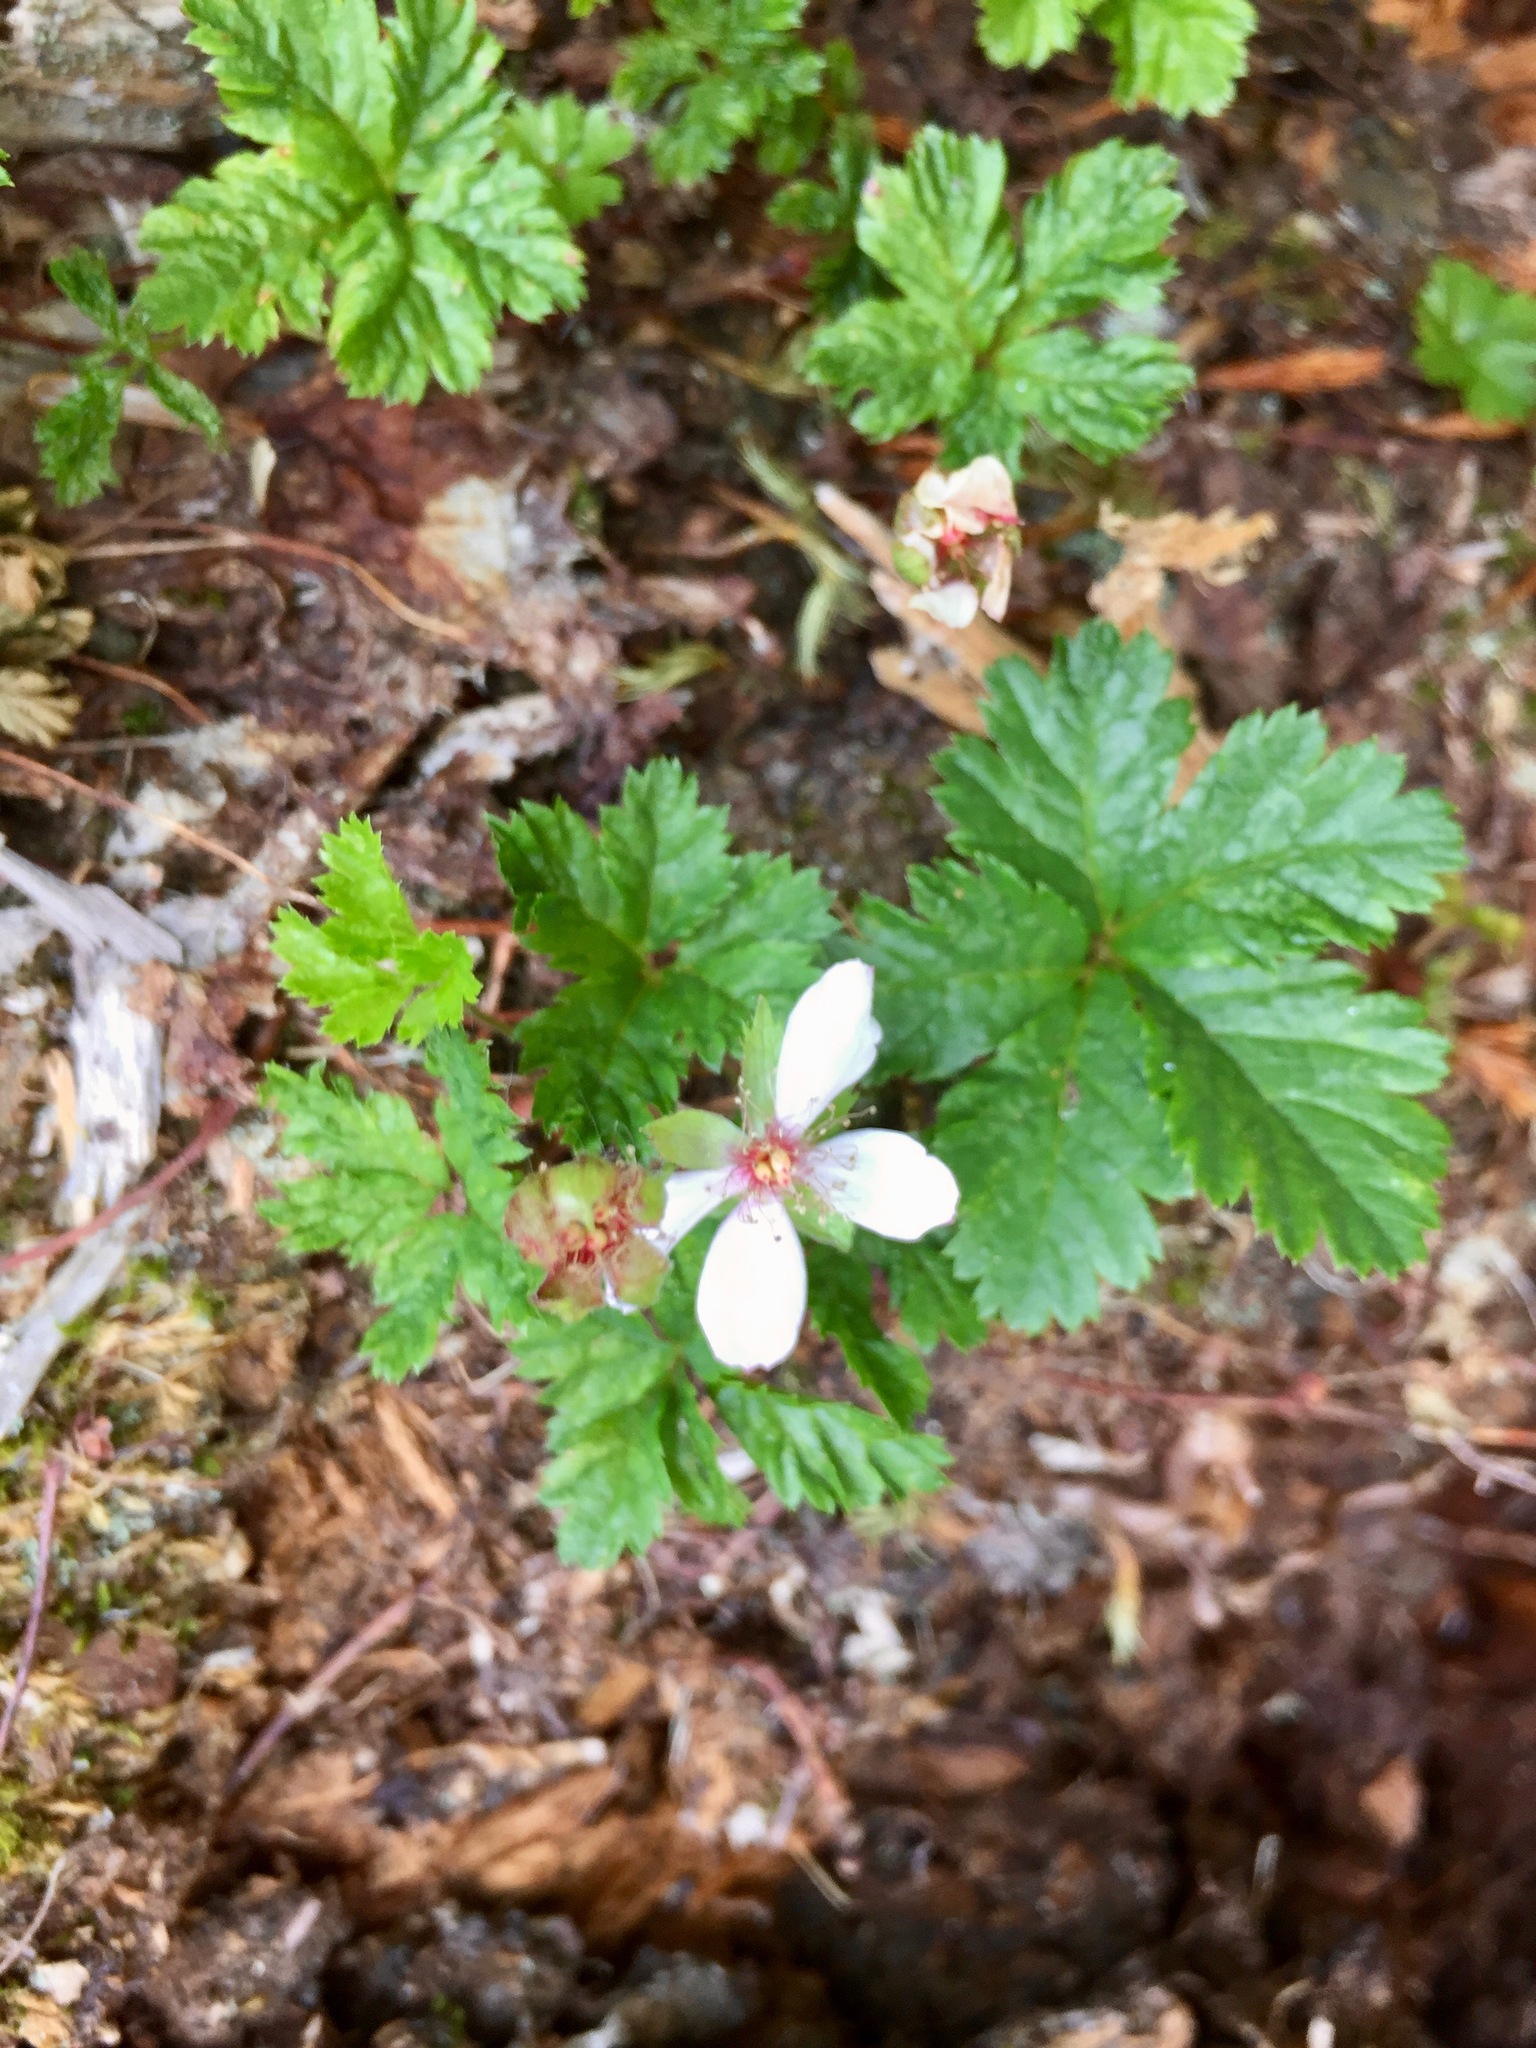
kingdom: Plantae
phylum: Tracheophyta
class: Magnoliopsida
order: Rosales
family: Rosaceae
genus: Rubus
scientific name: Rubus pedatus
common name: Creeping raspberry
